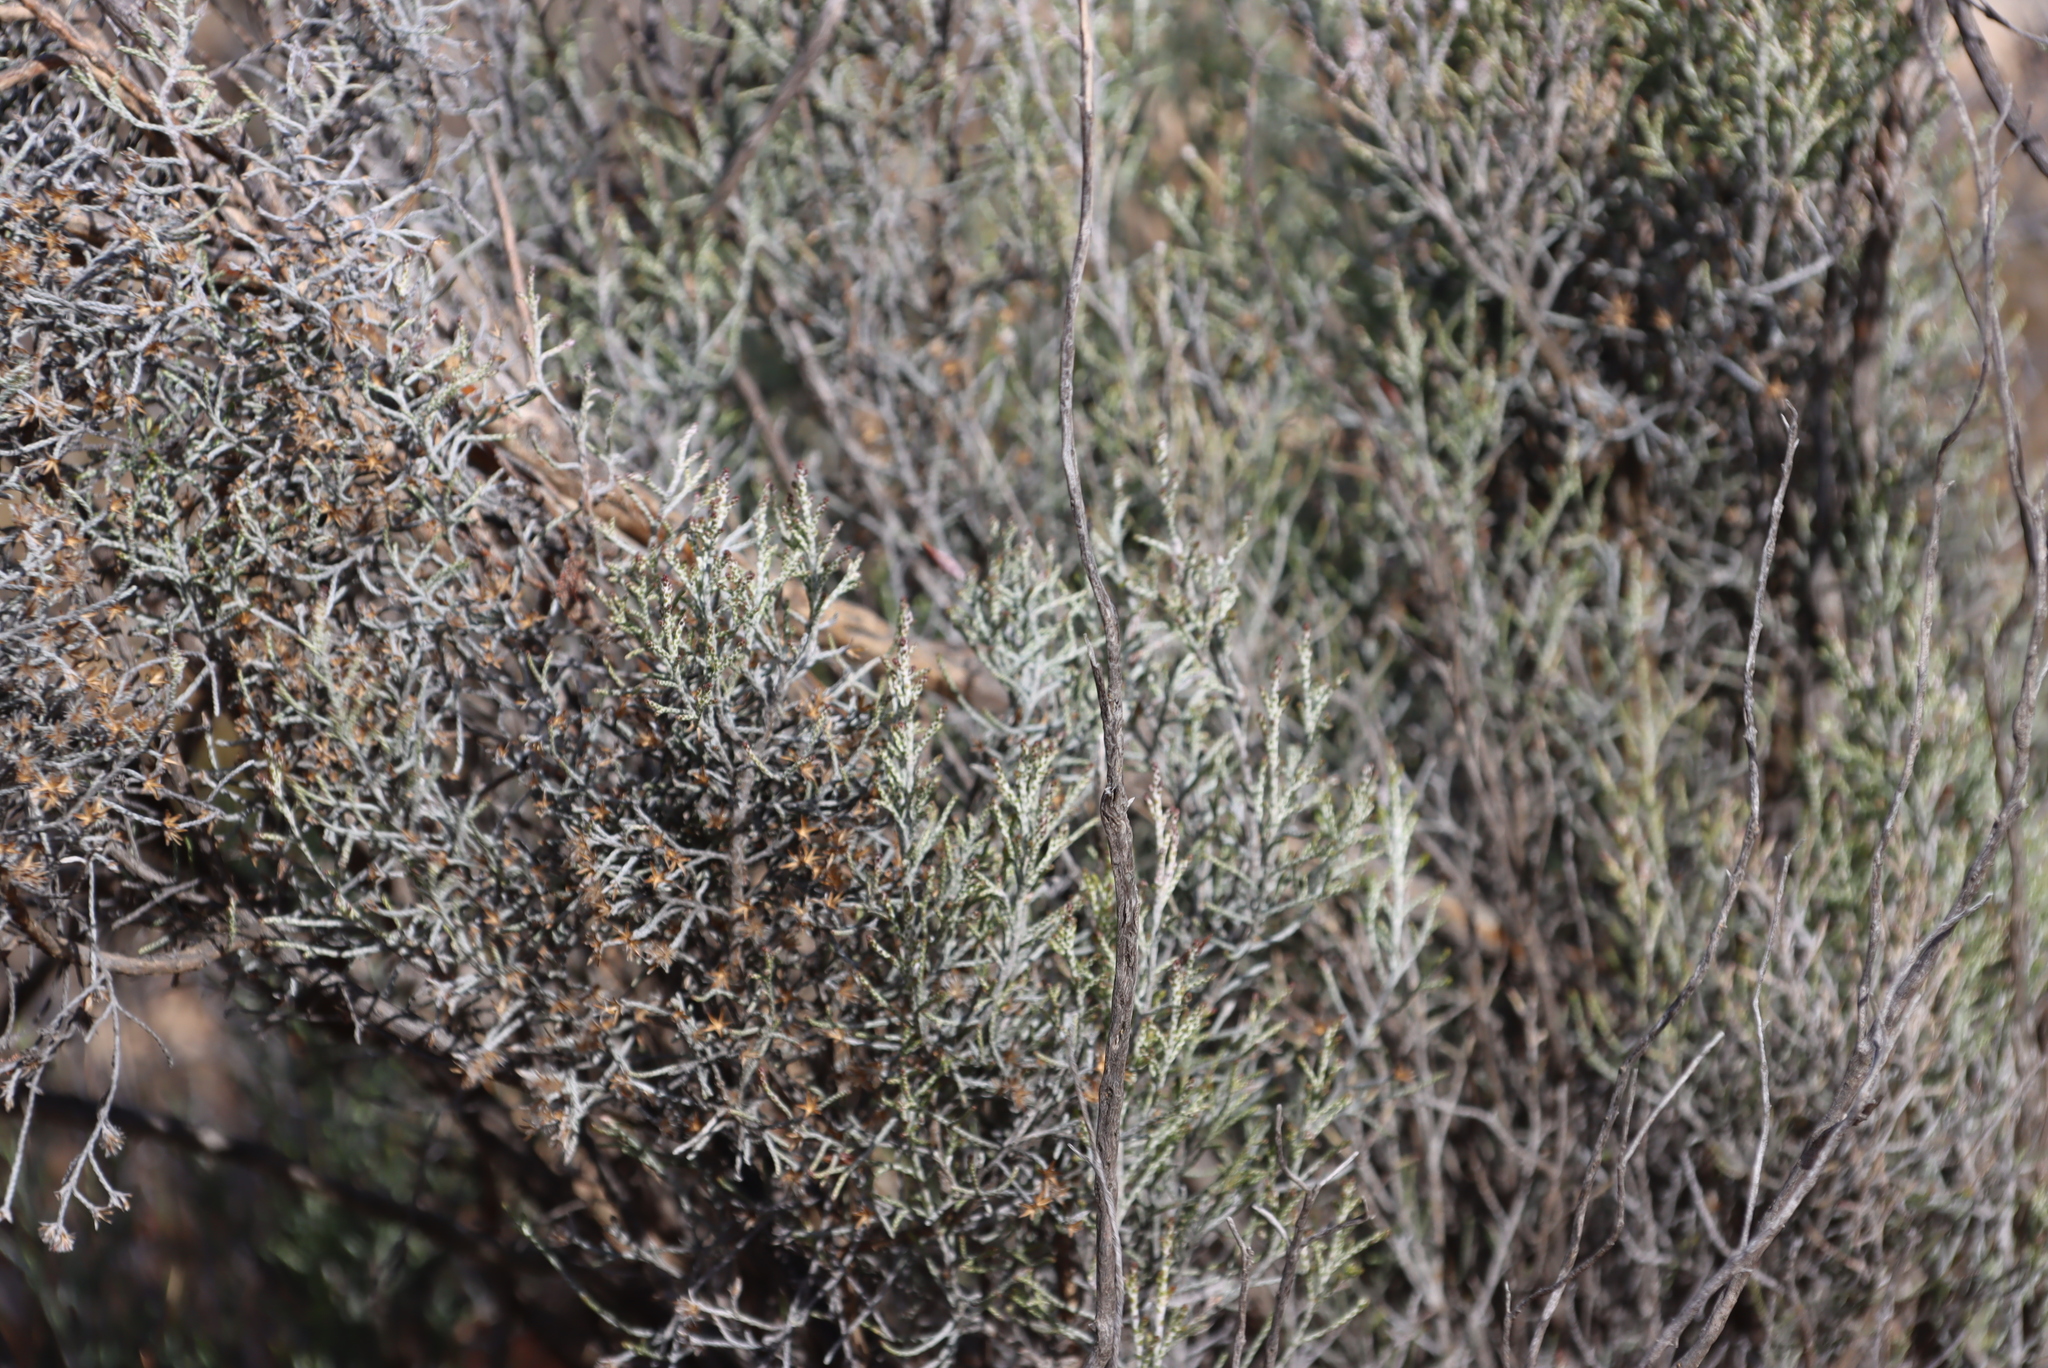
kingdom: Plantae
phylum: Tracheophyta
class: Magnoliopsida
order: Asterales
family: Asteraceae
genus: Dicerothamnus
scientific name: Dicerothamnus rhinocerotis
